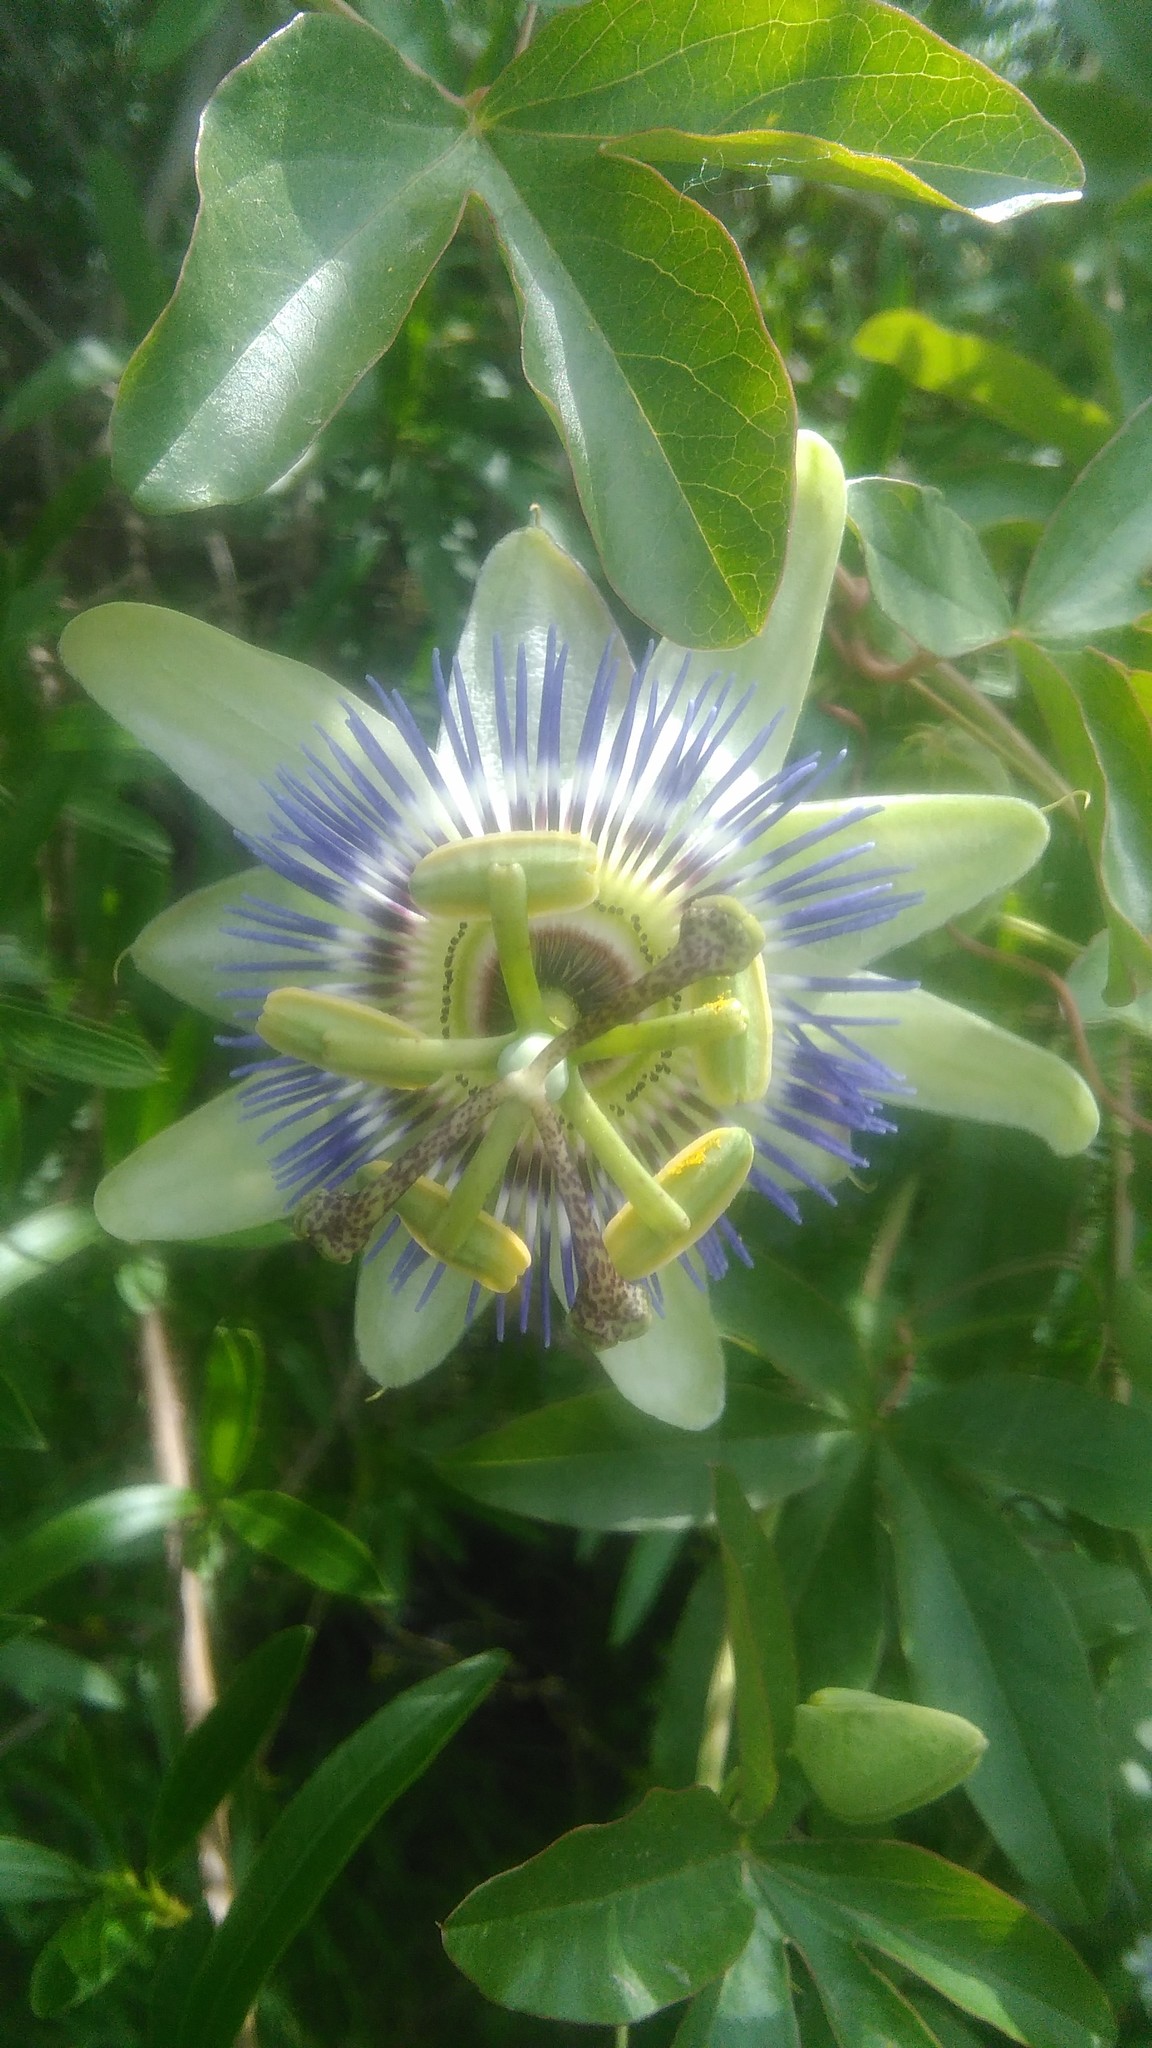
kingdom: Plantae
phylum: Tracheophyta
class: Magnoliopsida
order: Malpighiales
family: Passifloraceae
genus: Passiflora
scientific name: Passiflora caerulea
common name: Blue passionflower
